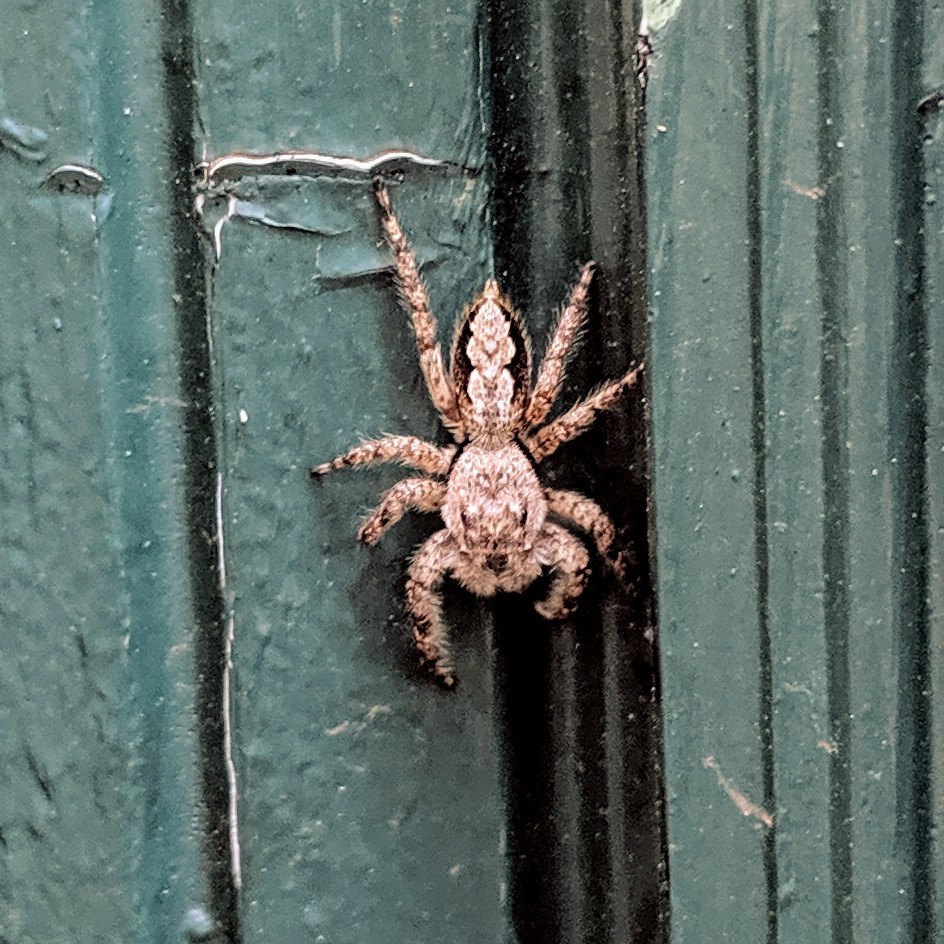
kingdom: Animalia
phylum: Arthropoda
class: Arachnida
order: Araneae
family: Salticidae
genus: Platycryptus
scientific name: Platycryptus undatus
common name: Tan jumping spider
